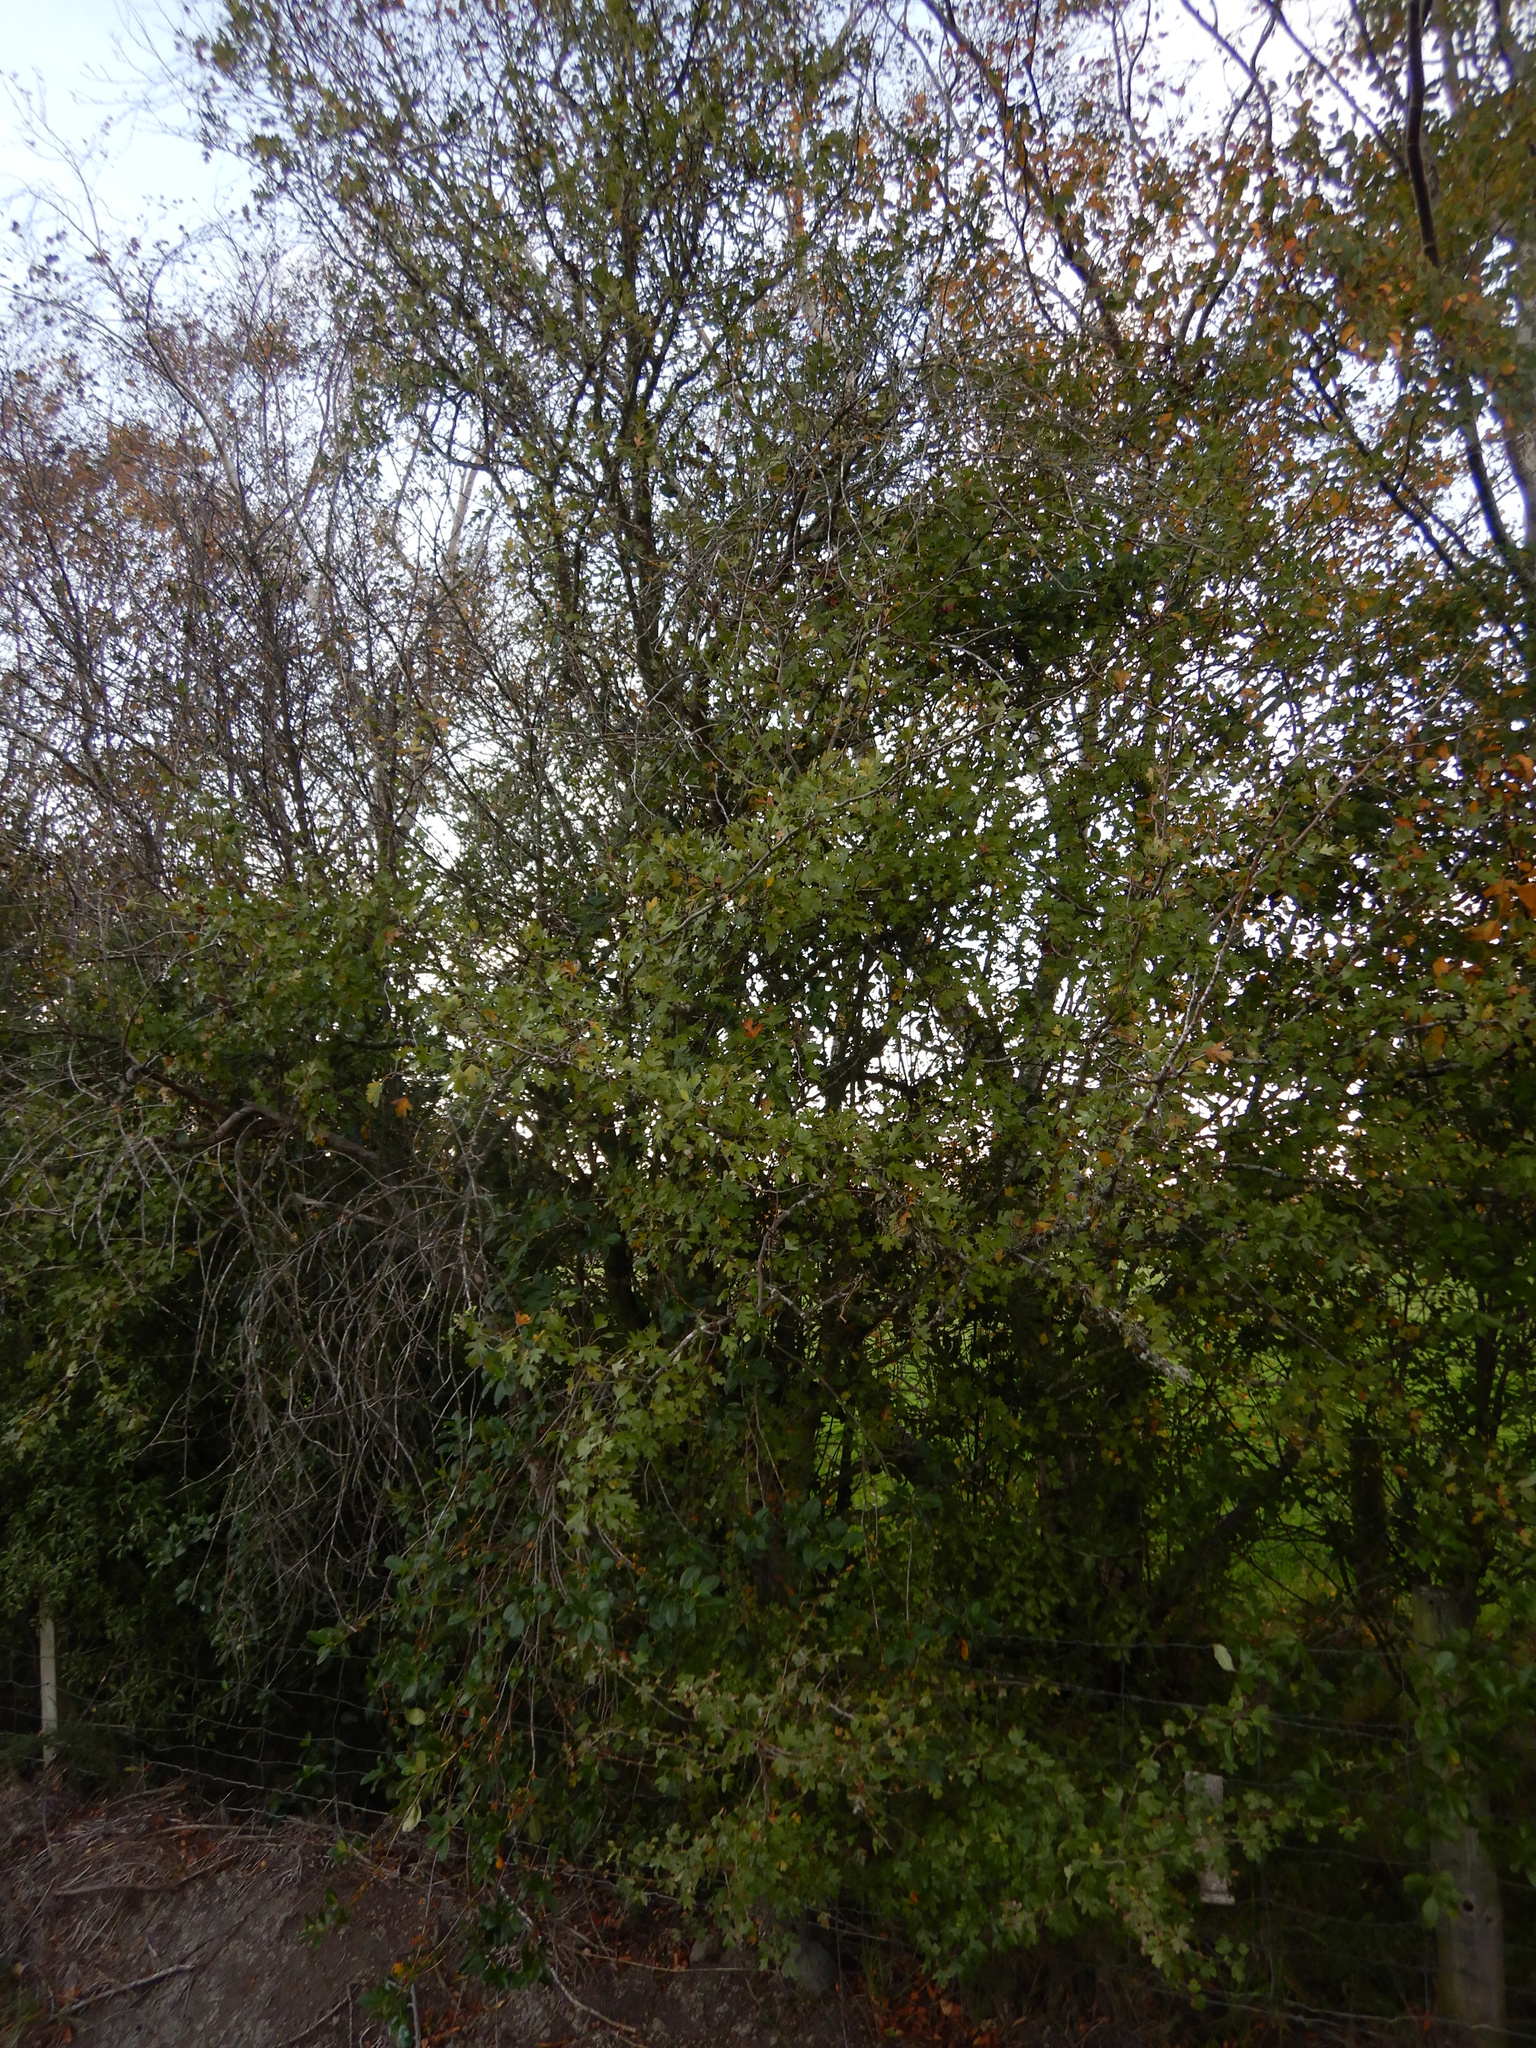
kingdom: Plantae
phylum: Tracheophyta
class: Magnoliopsida
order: Rosales
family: Rosaceae
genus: Crataegus
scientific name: Crataegus monogyna
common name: Hawthorn
